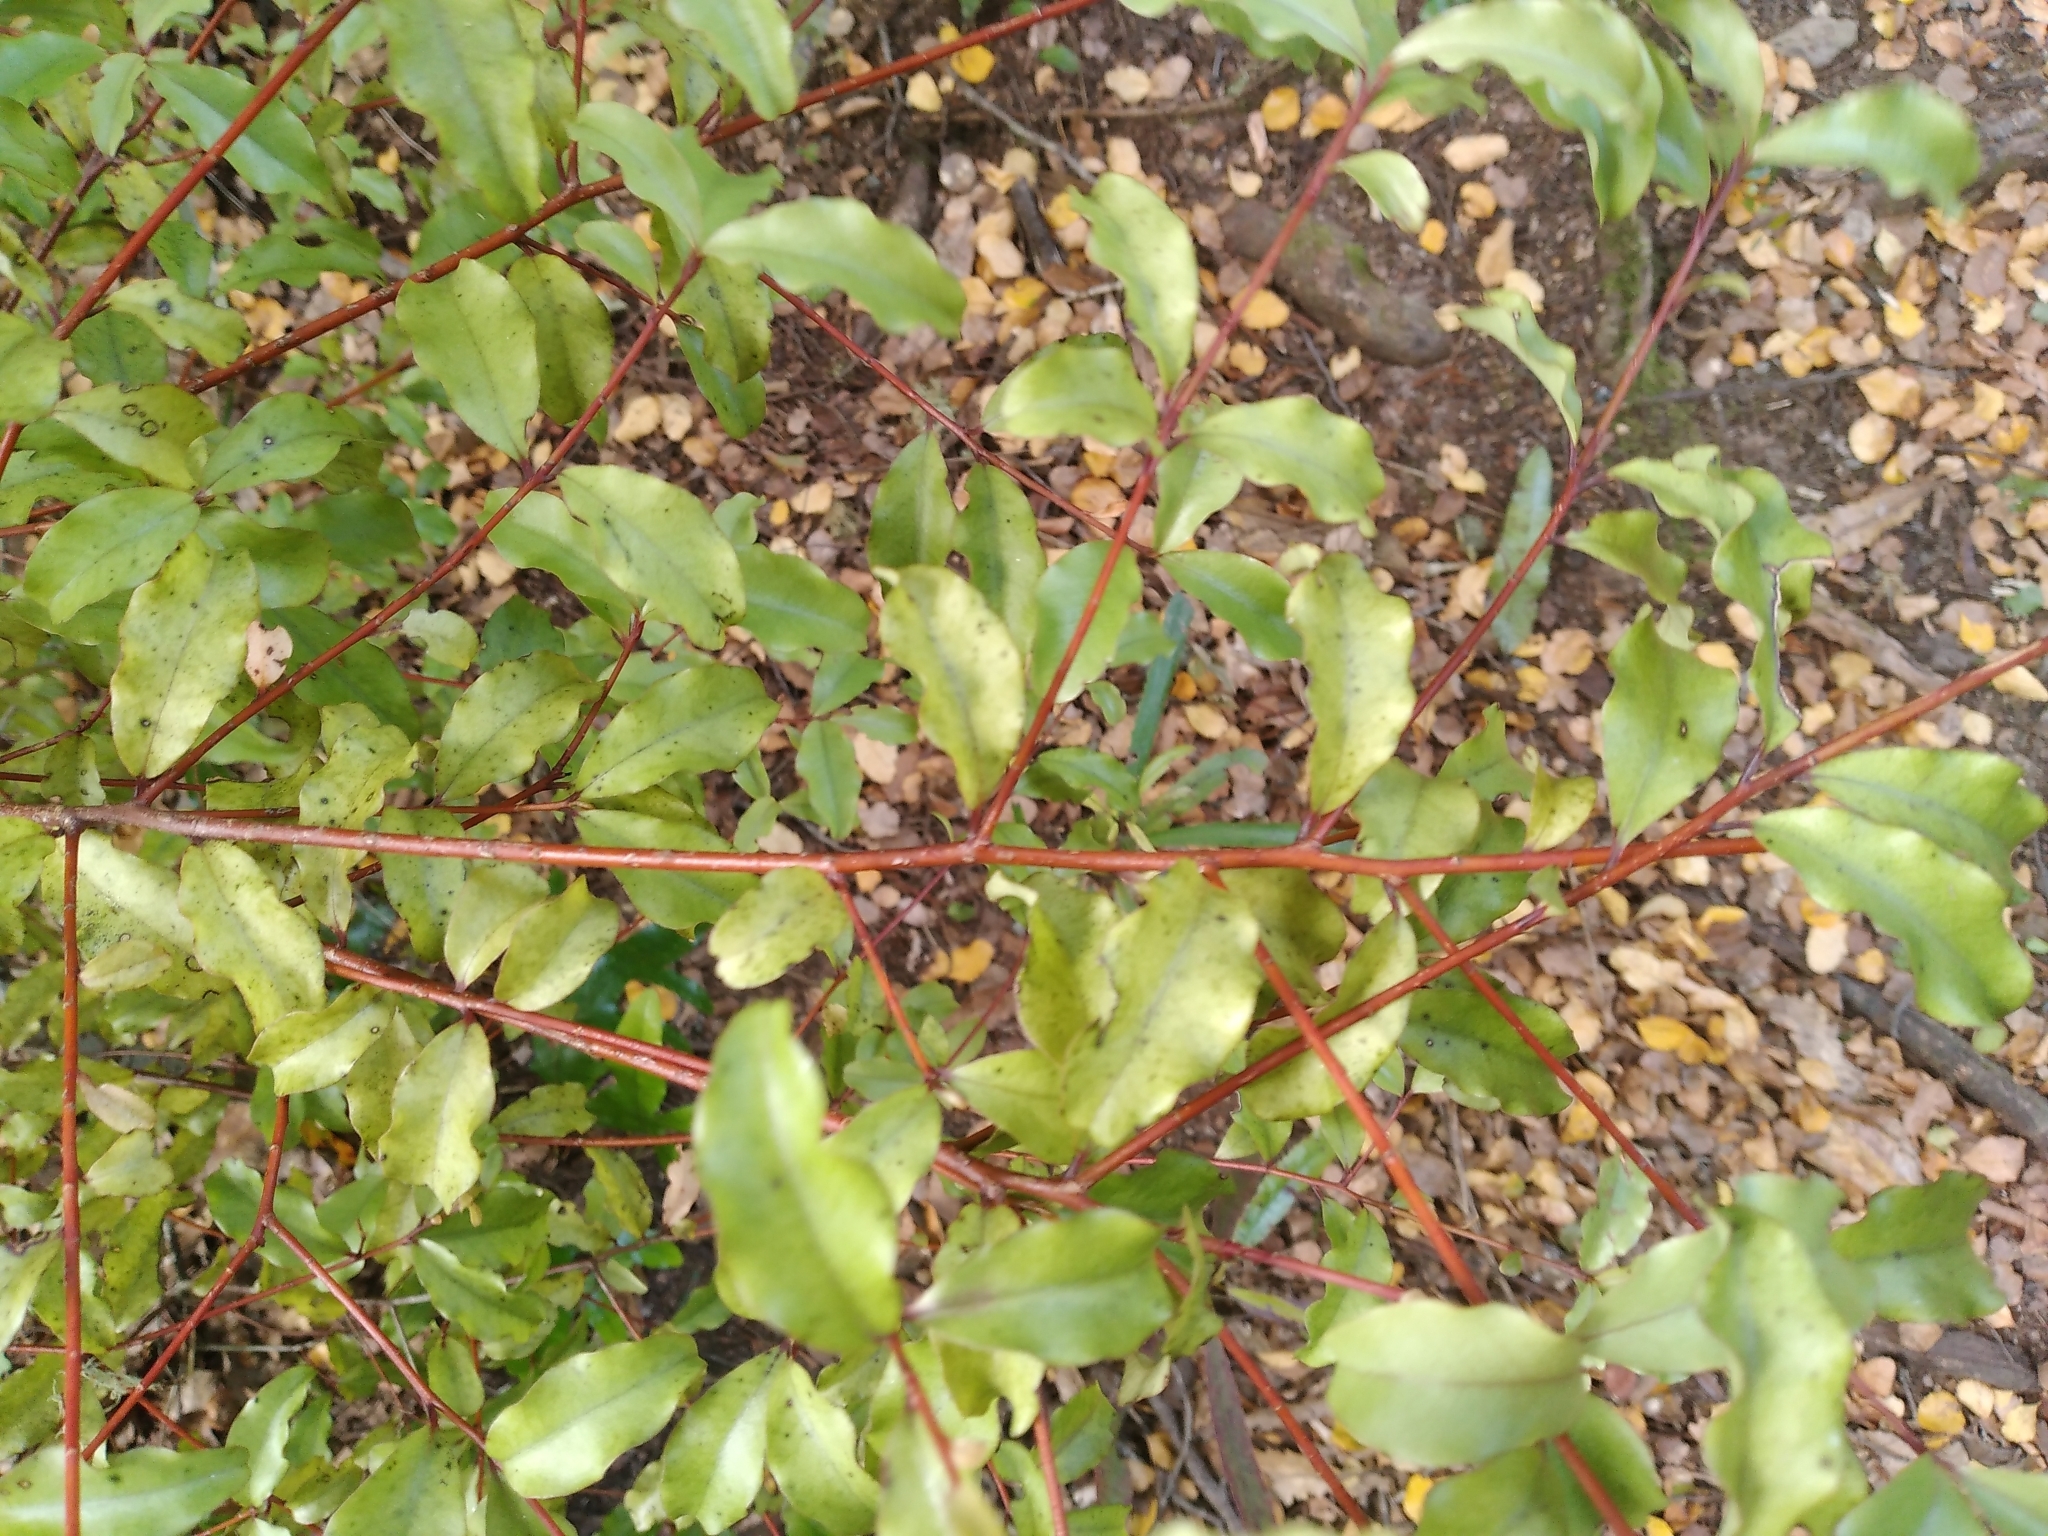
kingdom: Plantae
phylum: Tracheophyta
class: Magnoliopsida
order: Ericales
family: Primulaceae
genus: Myrsine
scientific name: Myrsine australis
